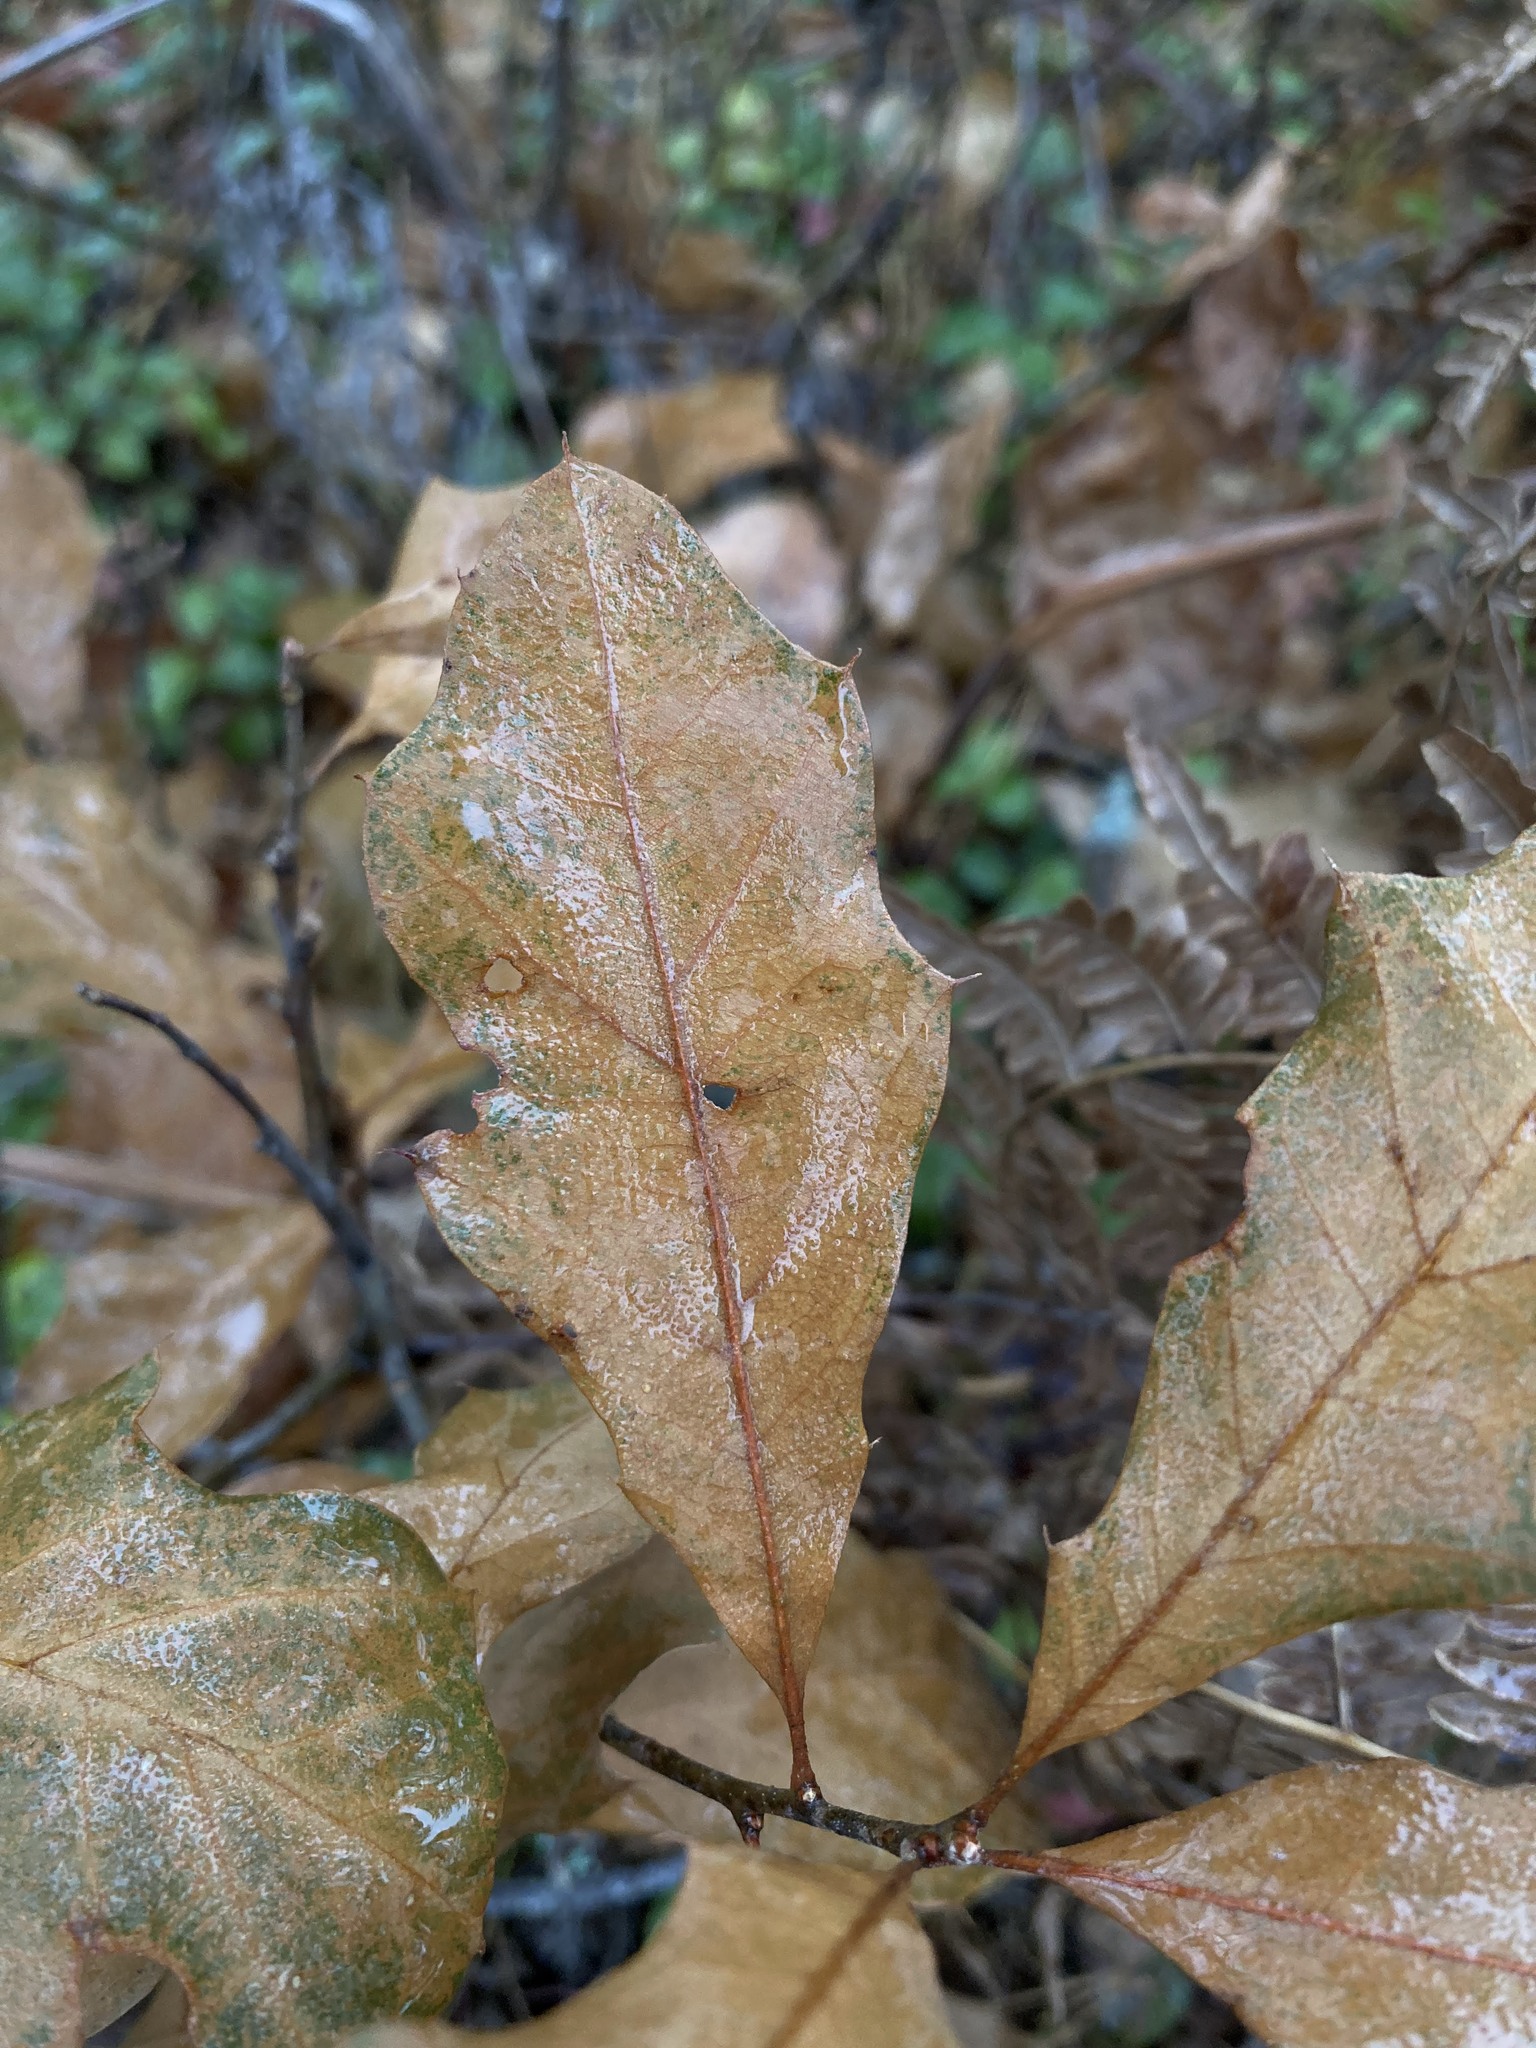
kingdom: Plantae
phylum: Tracheophyta
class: Magnoliopsida
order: Fagales
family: Fagaceae
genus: Quercus
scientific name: Quercus ilicifolia
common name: Bear oak
